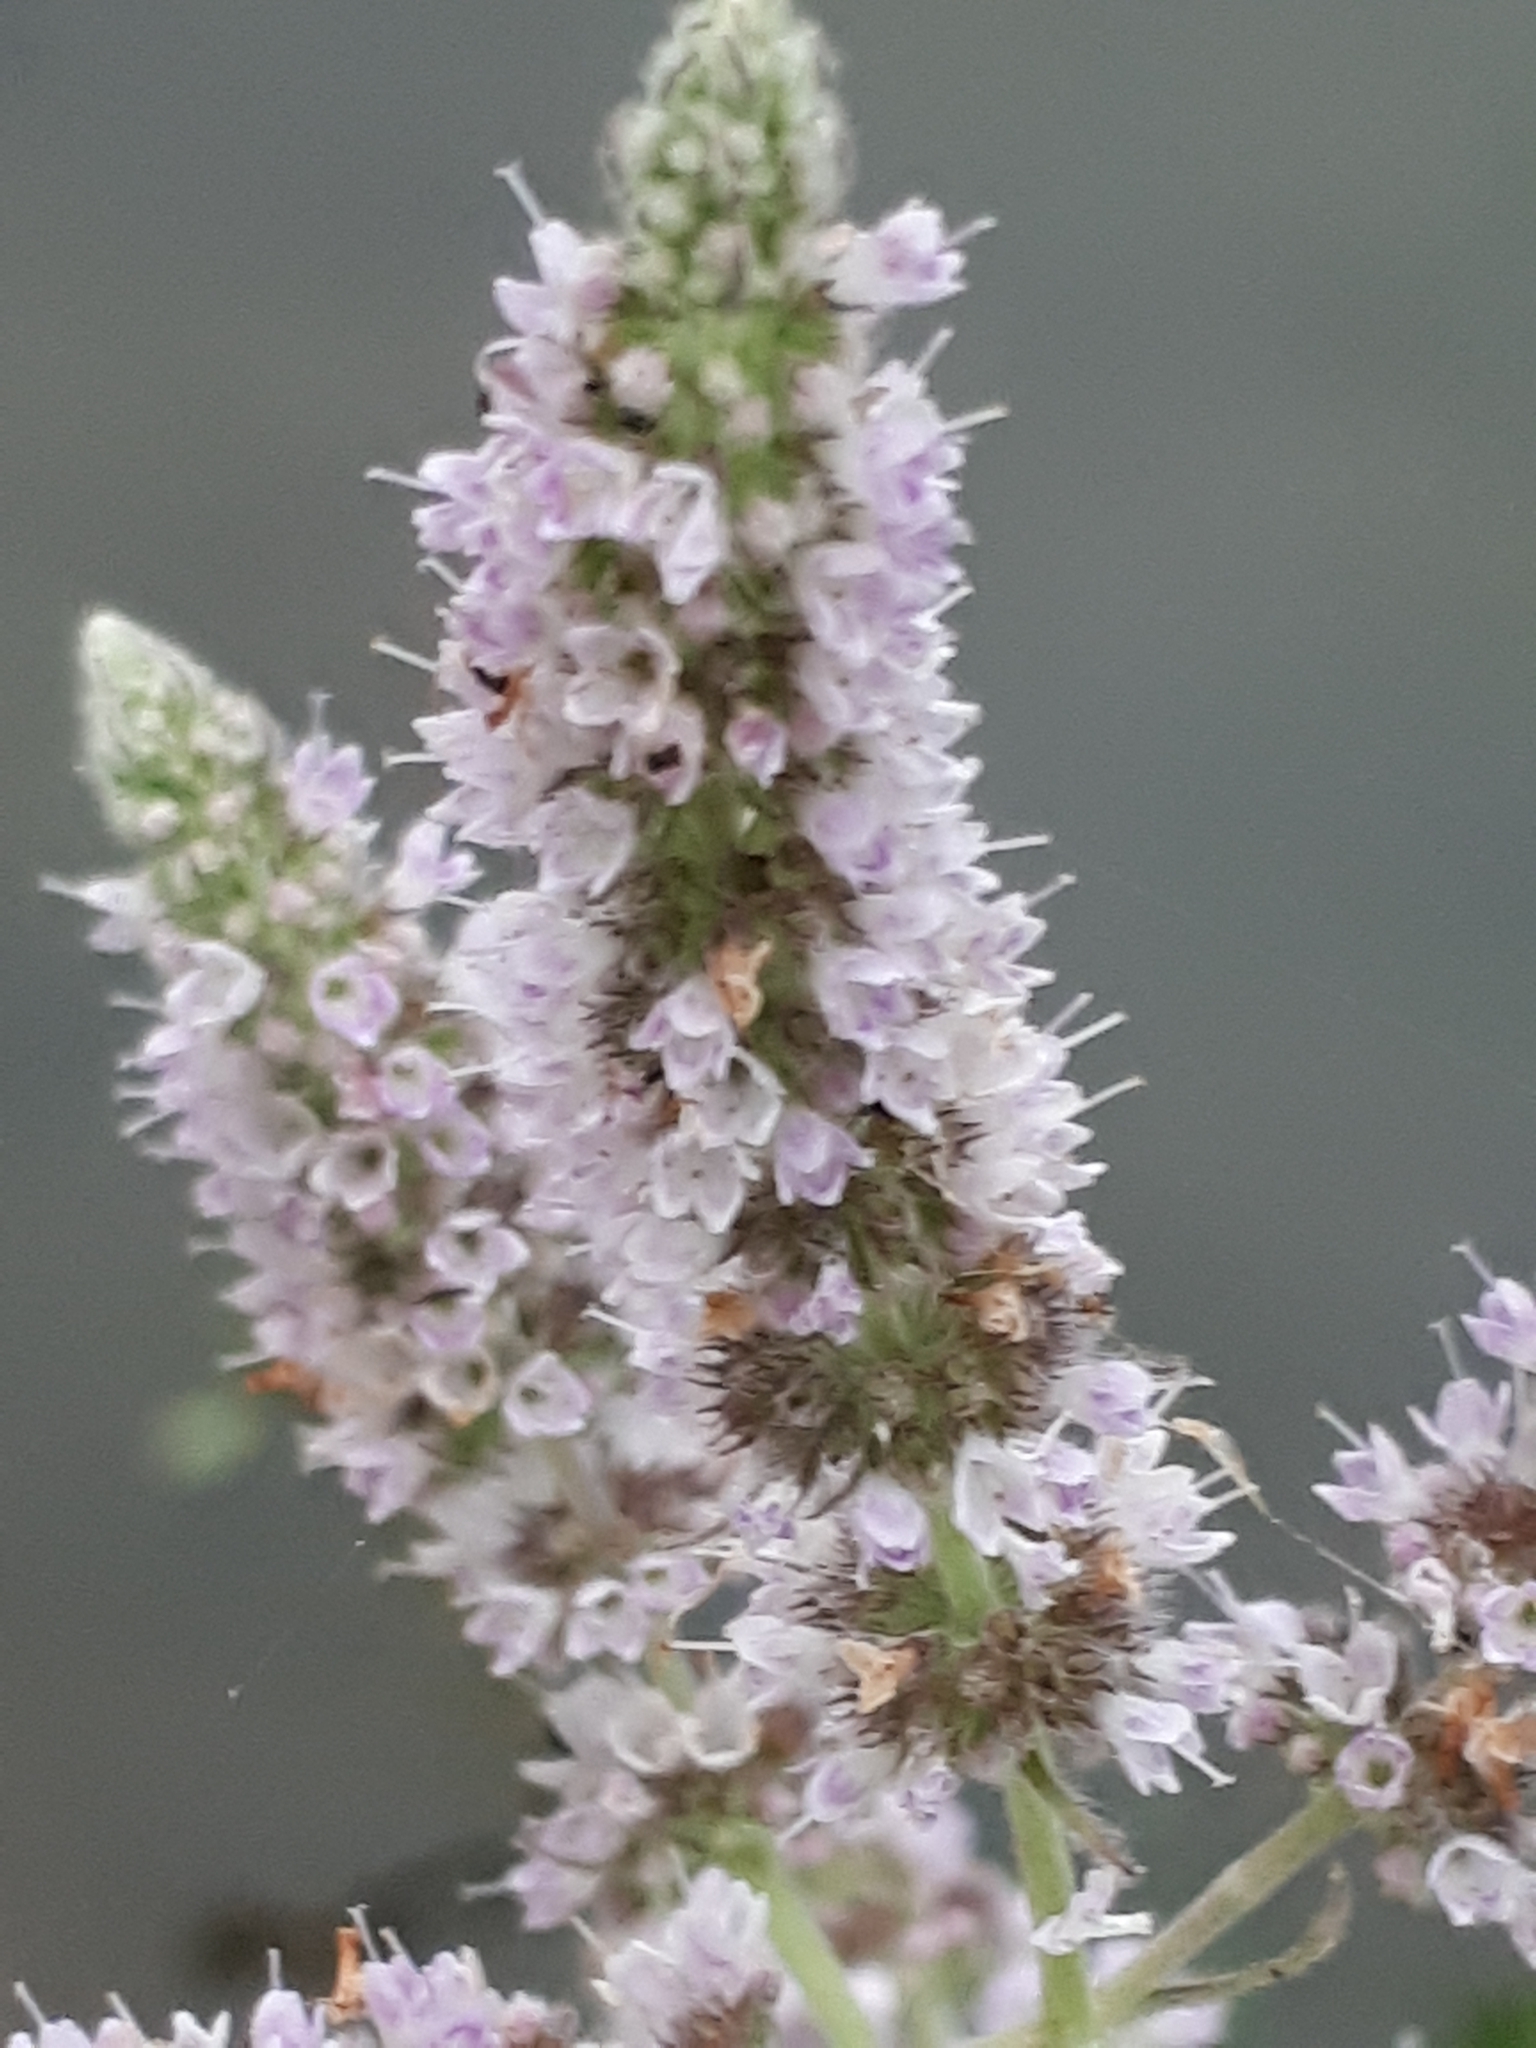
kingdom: Plantae
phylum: Tracheophyta
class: Magnoliopsida
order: Lamiales
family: Lamiaceae
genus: Mentha
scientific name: Mentha longifolia
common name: Horse mint
